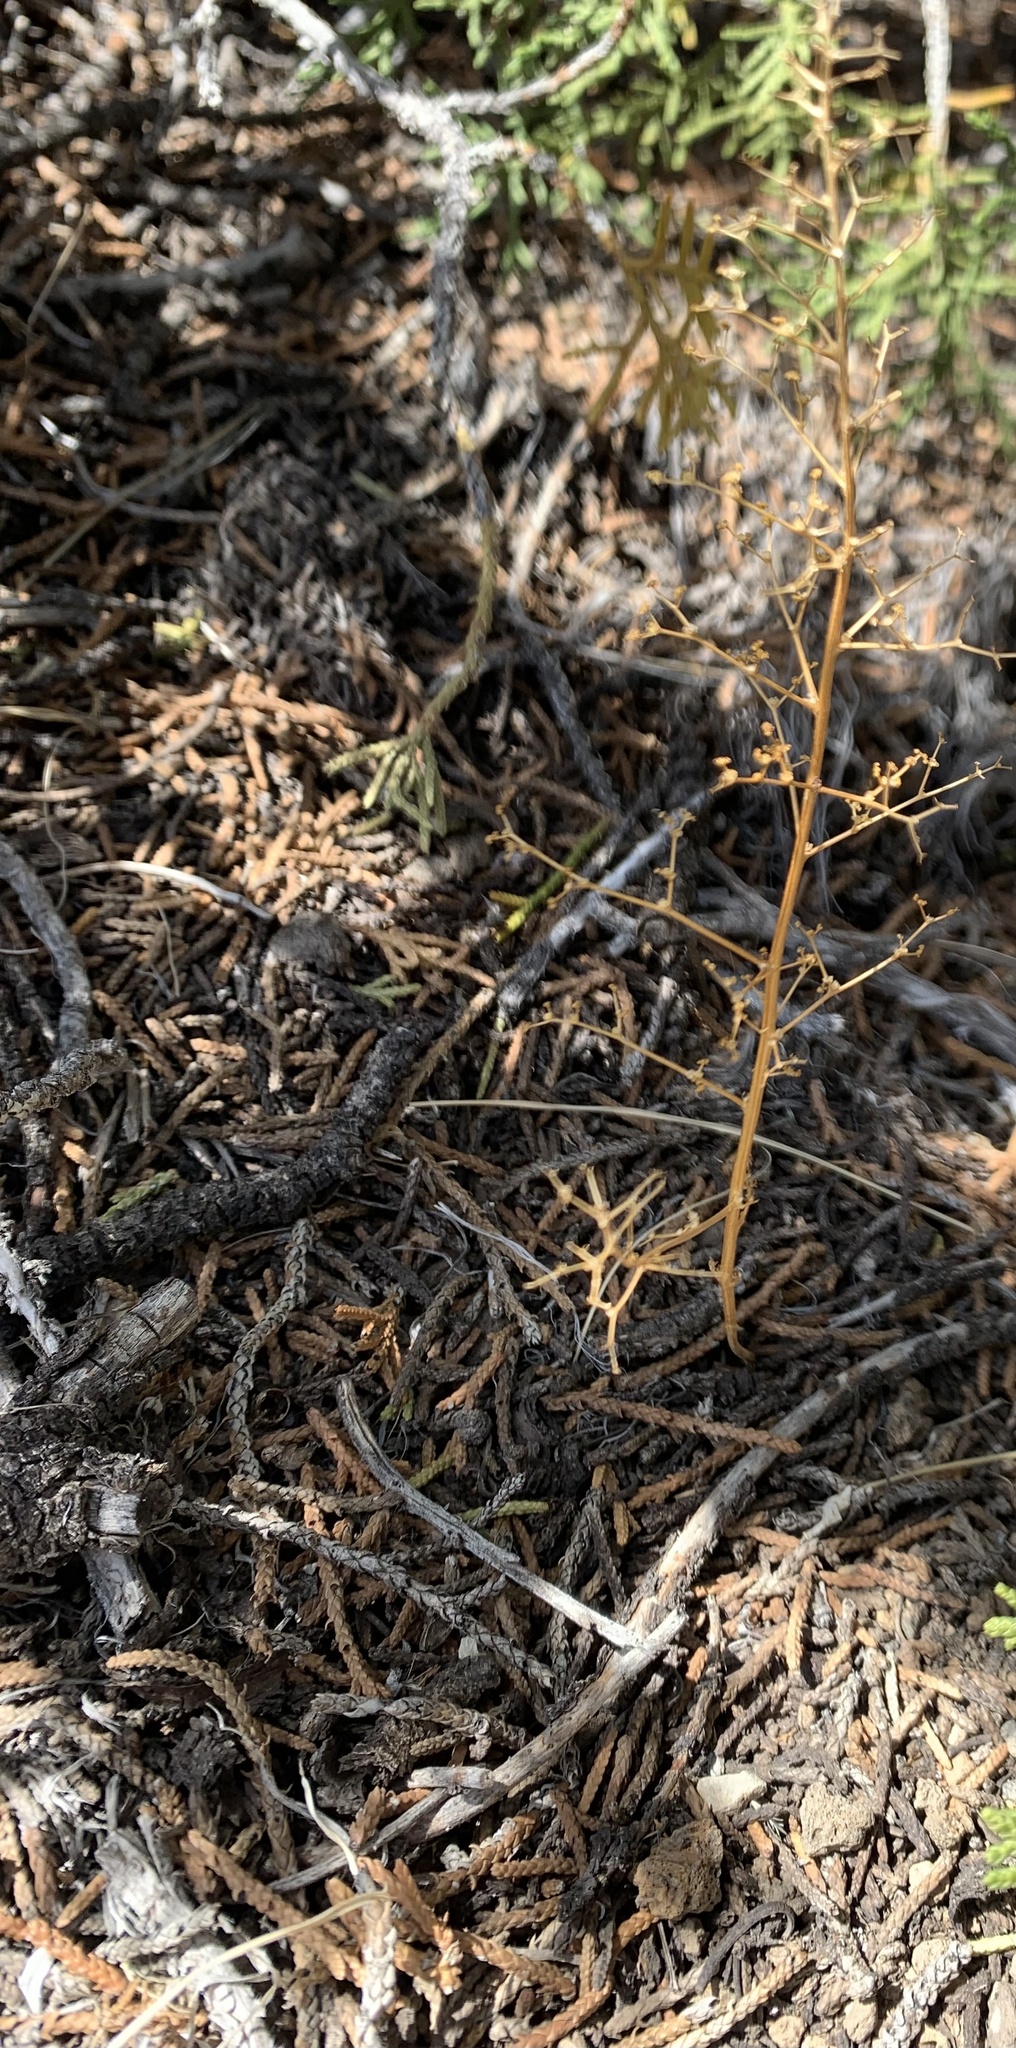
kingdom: Plantae
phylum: Tracheophyta
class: Magnoliopsida
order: Caryophyllales
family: Amaranthaceae
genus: Dysphania
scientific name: Dysphania incisa
